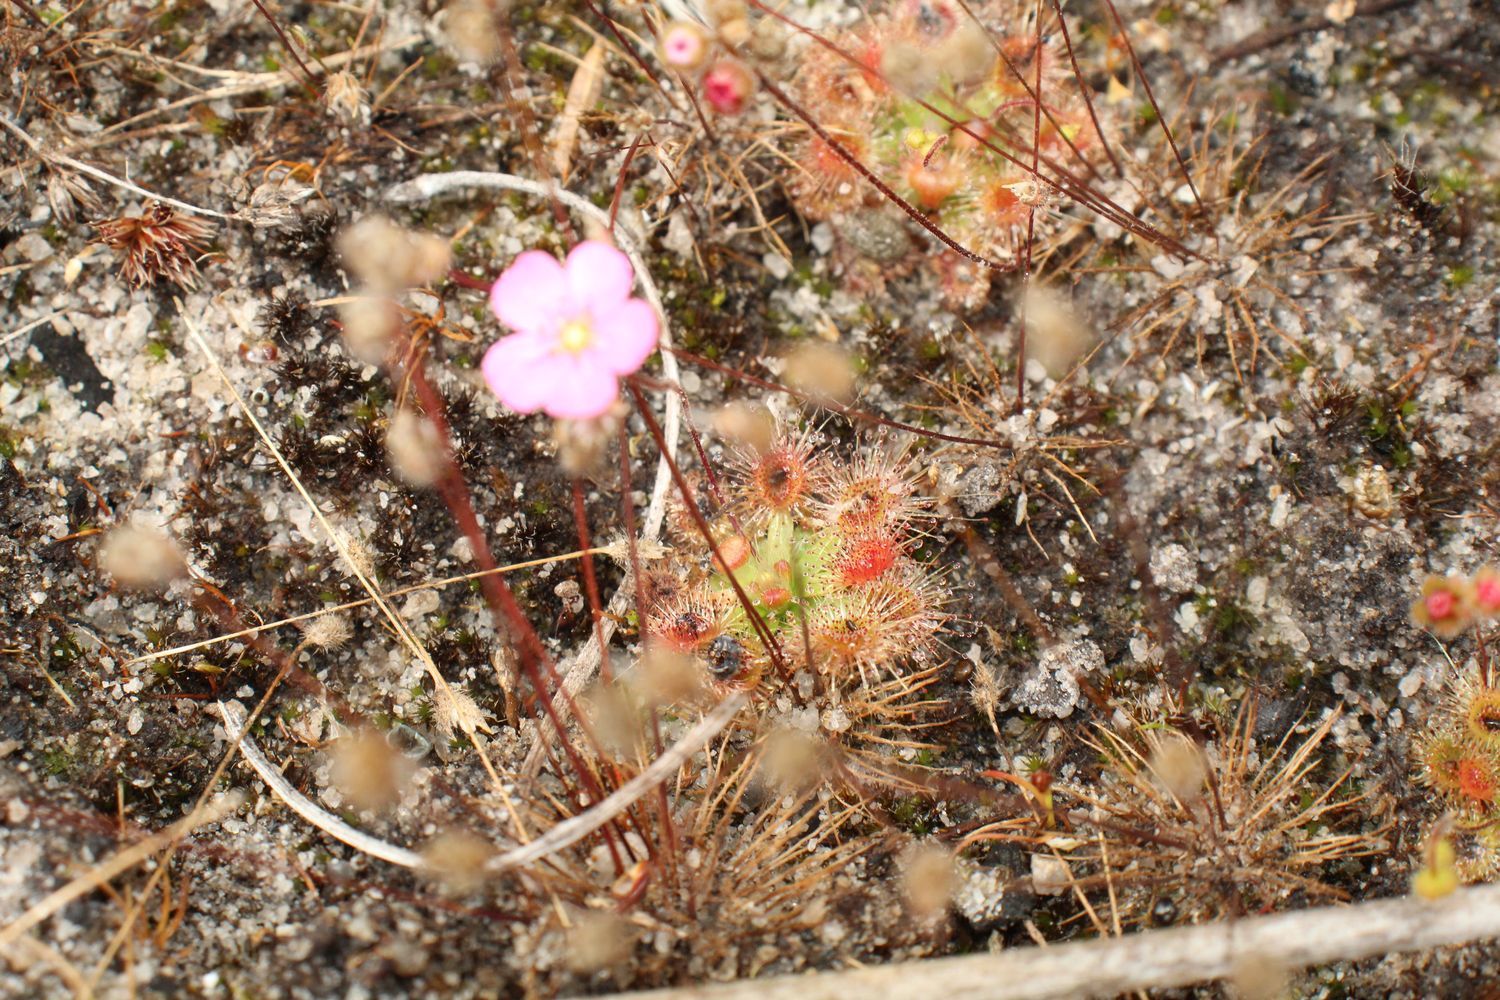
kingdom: Plantae
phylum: Tracheophyta
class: Magnoliopsida
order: Caryophyllales
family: Droseraceae
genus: Drosera
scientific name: Drosera pulchella
